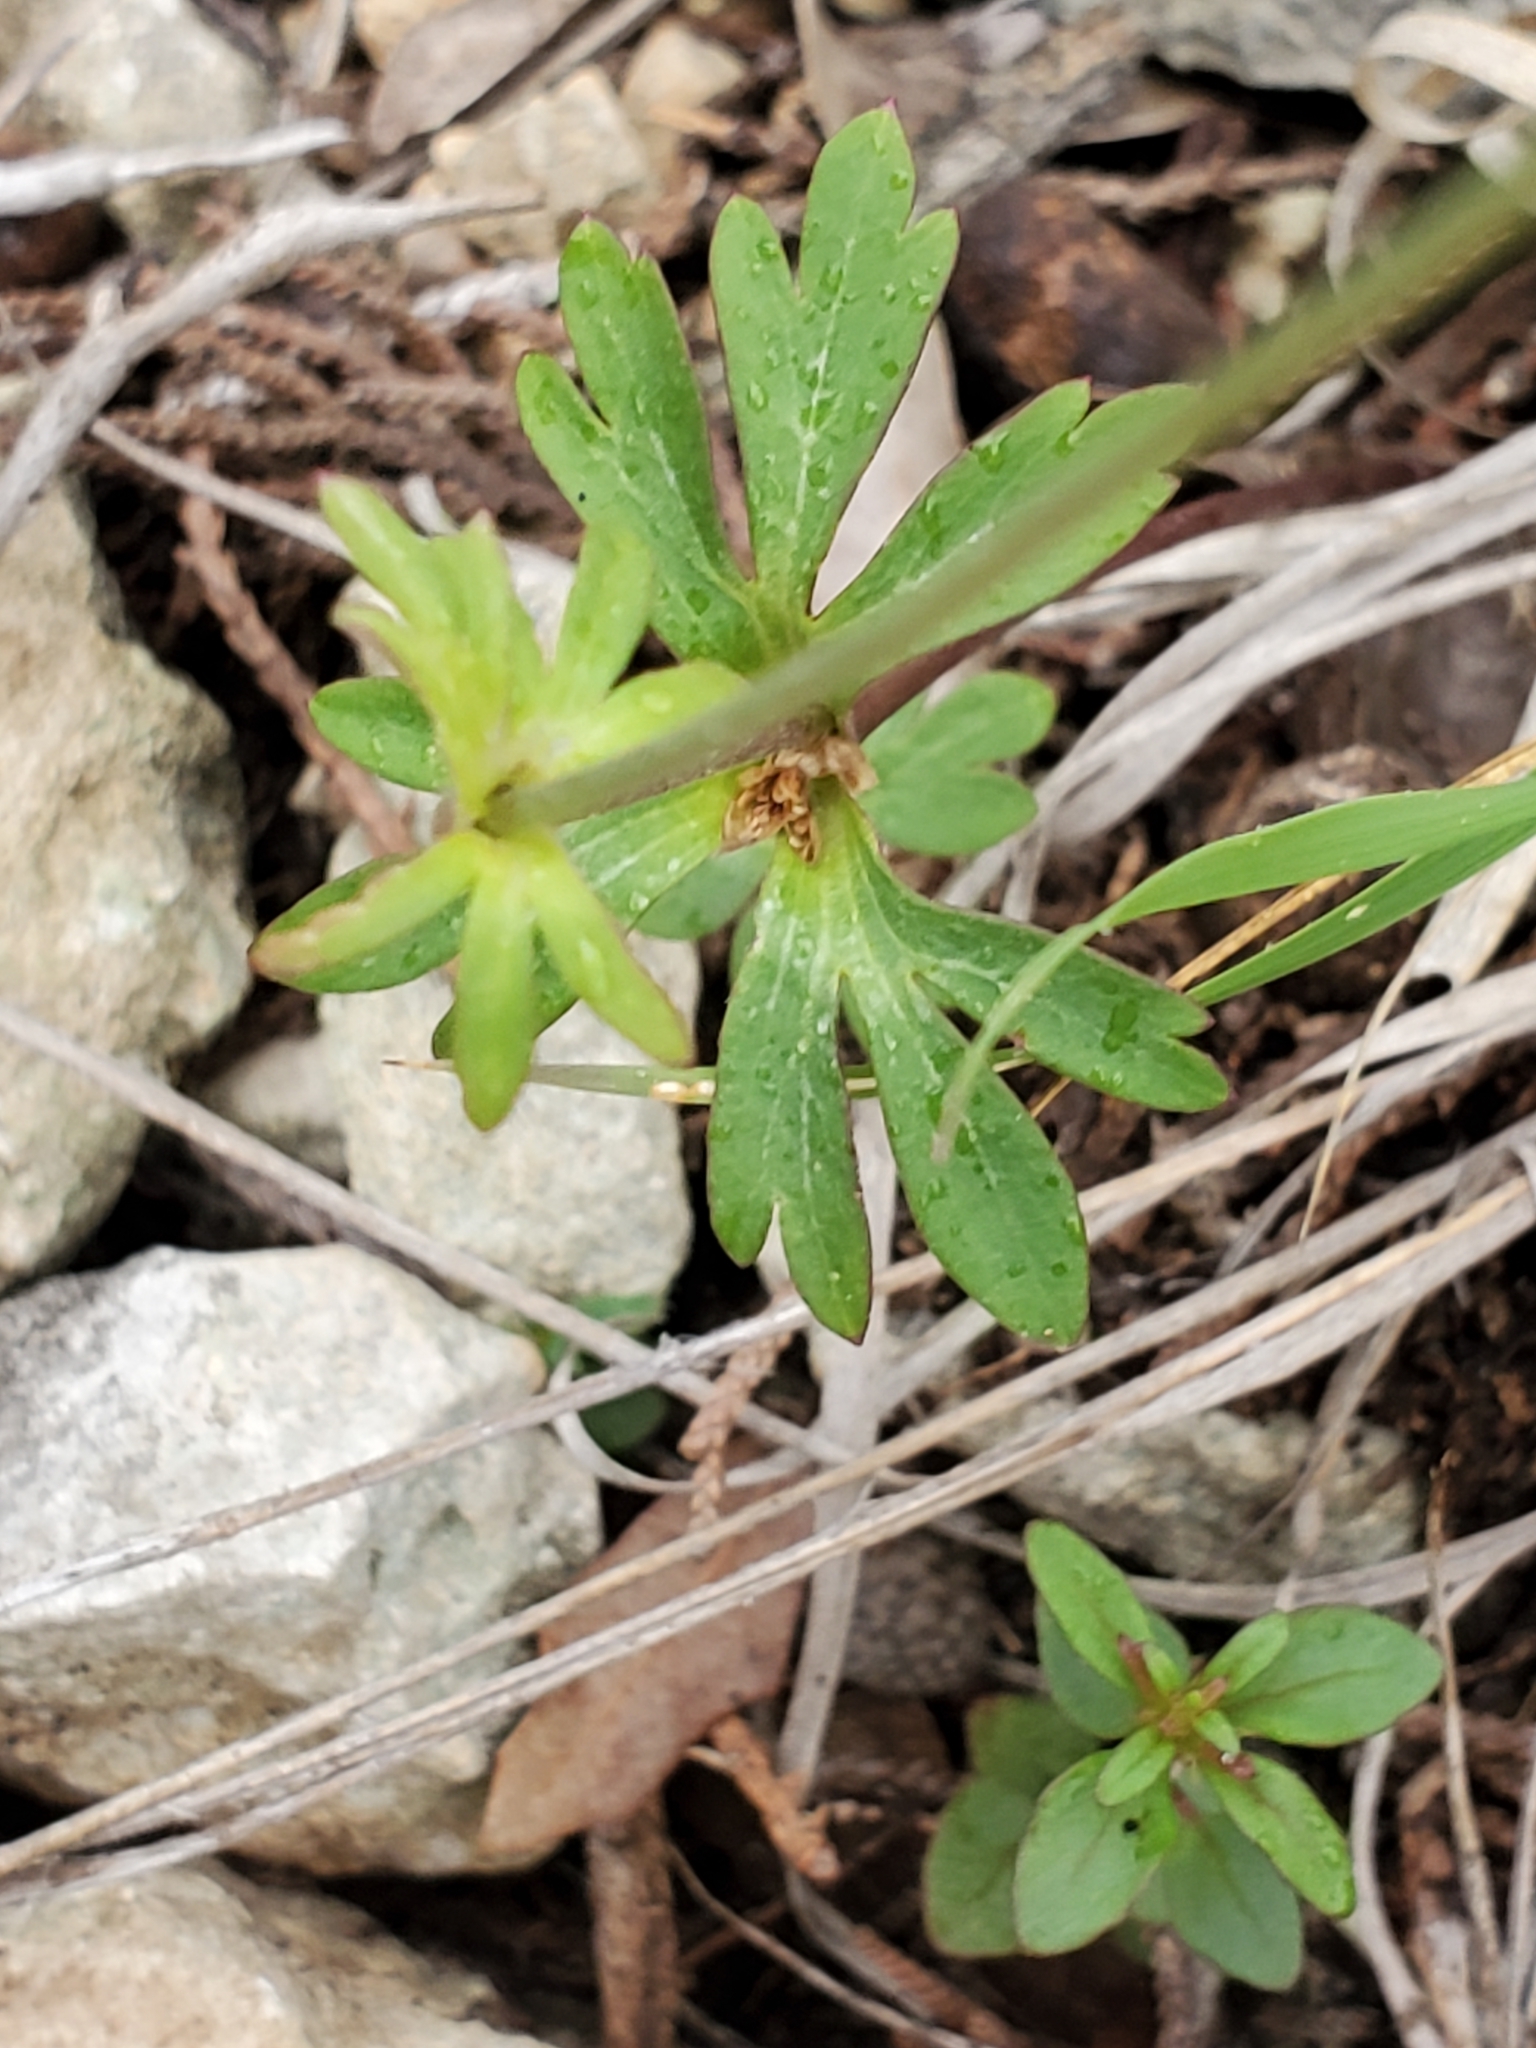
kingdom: Plantae
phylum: Tracheophyta
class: Magnoliopsida
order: Ranunculales
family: Ranunculaceae
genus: Anemone
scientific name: Anemone edwardsiana
